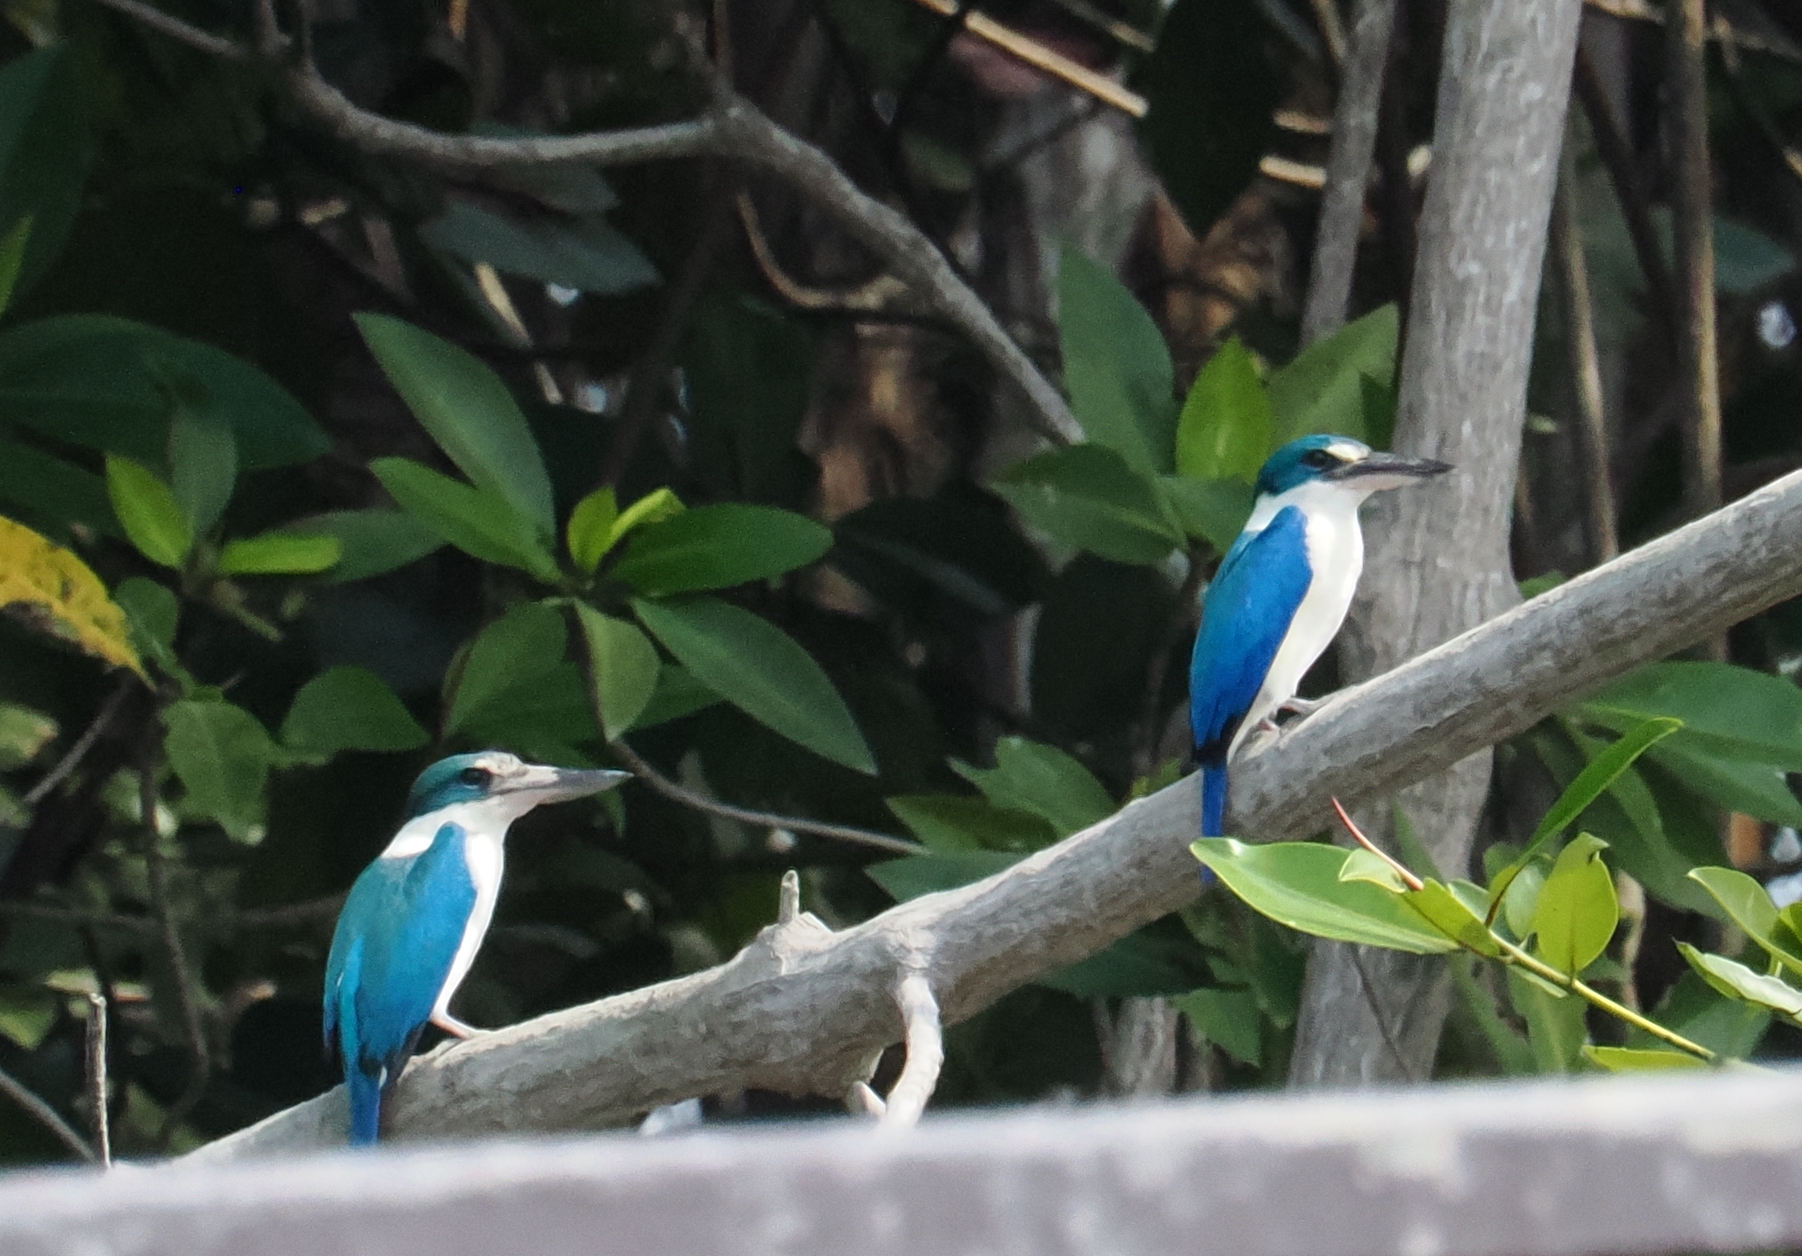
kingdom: Animalia
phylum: Chordata
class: Aves
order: Coraciiformes
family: Alcedinidae
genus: Todiramphus
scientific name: Todiramphus chloris
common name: Collared kingfisher
